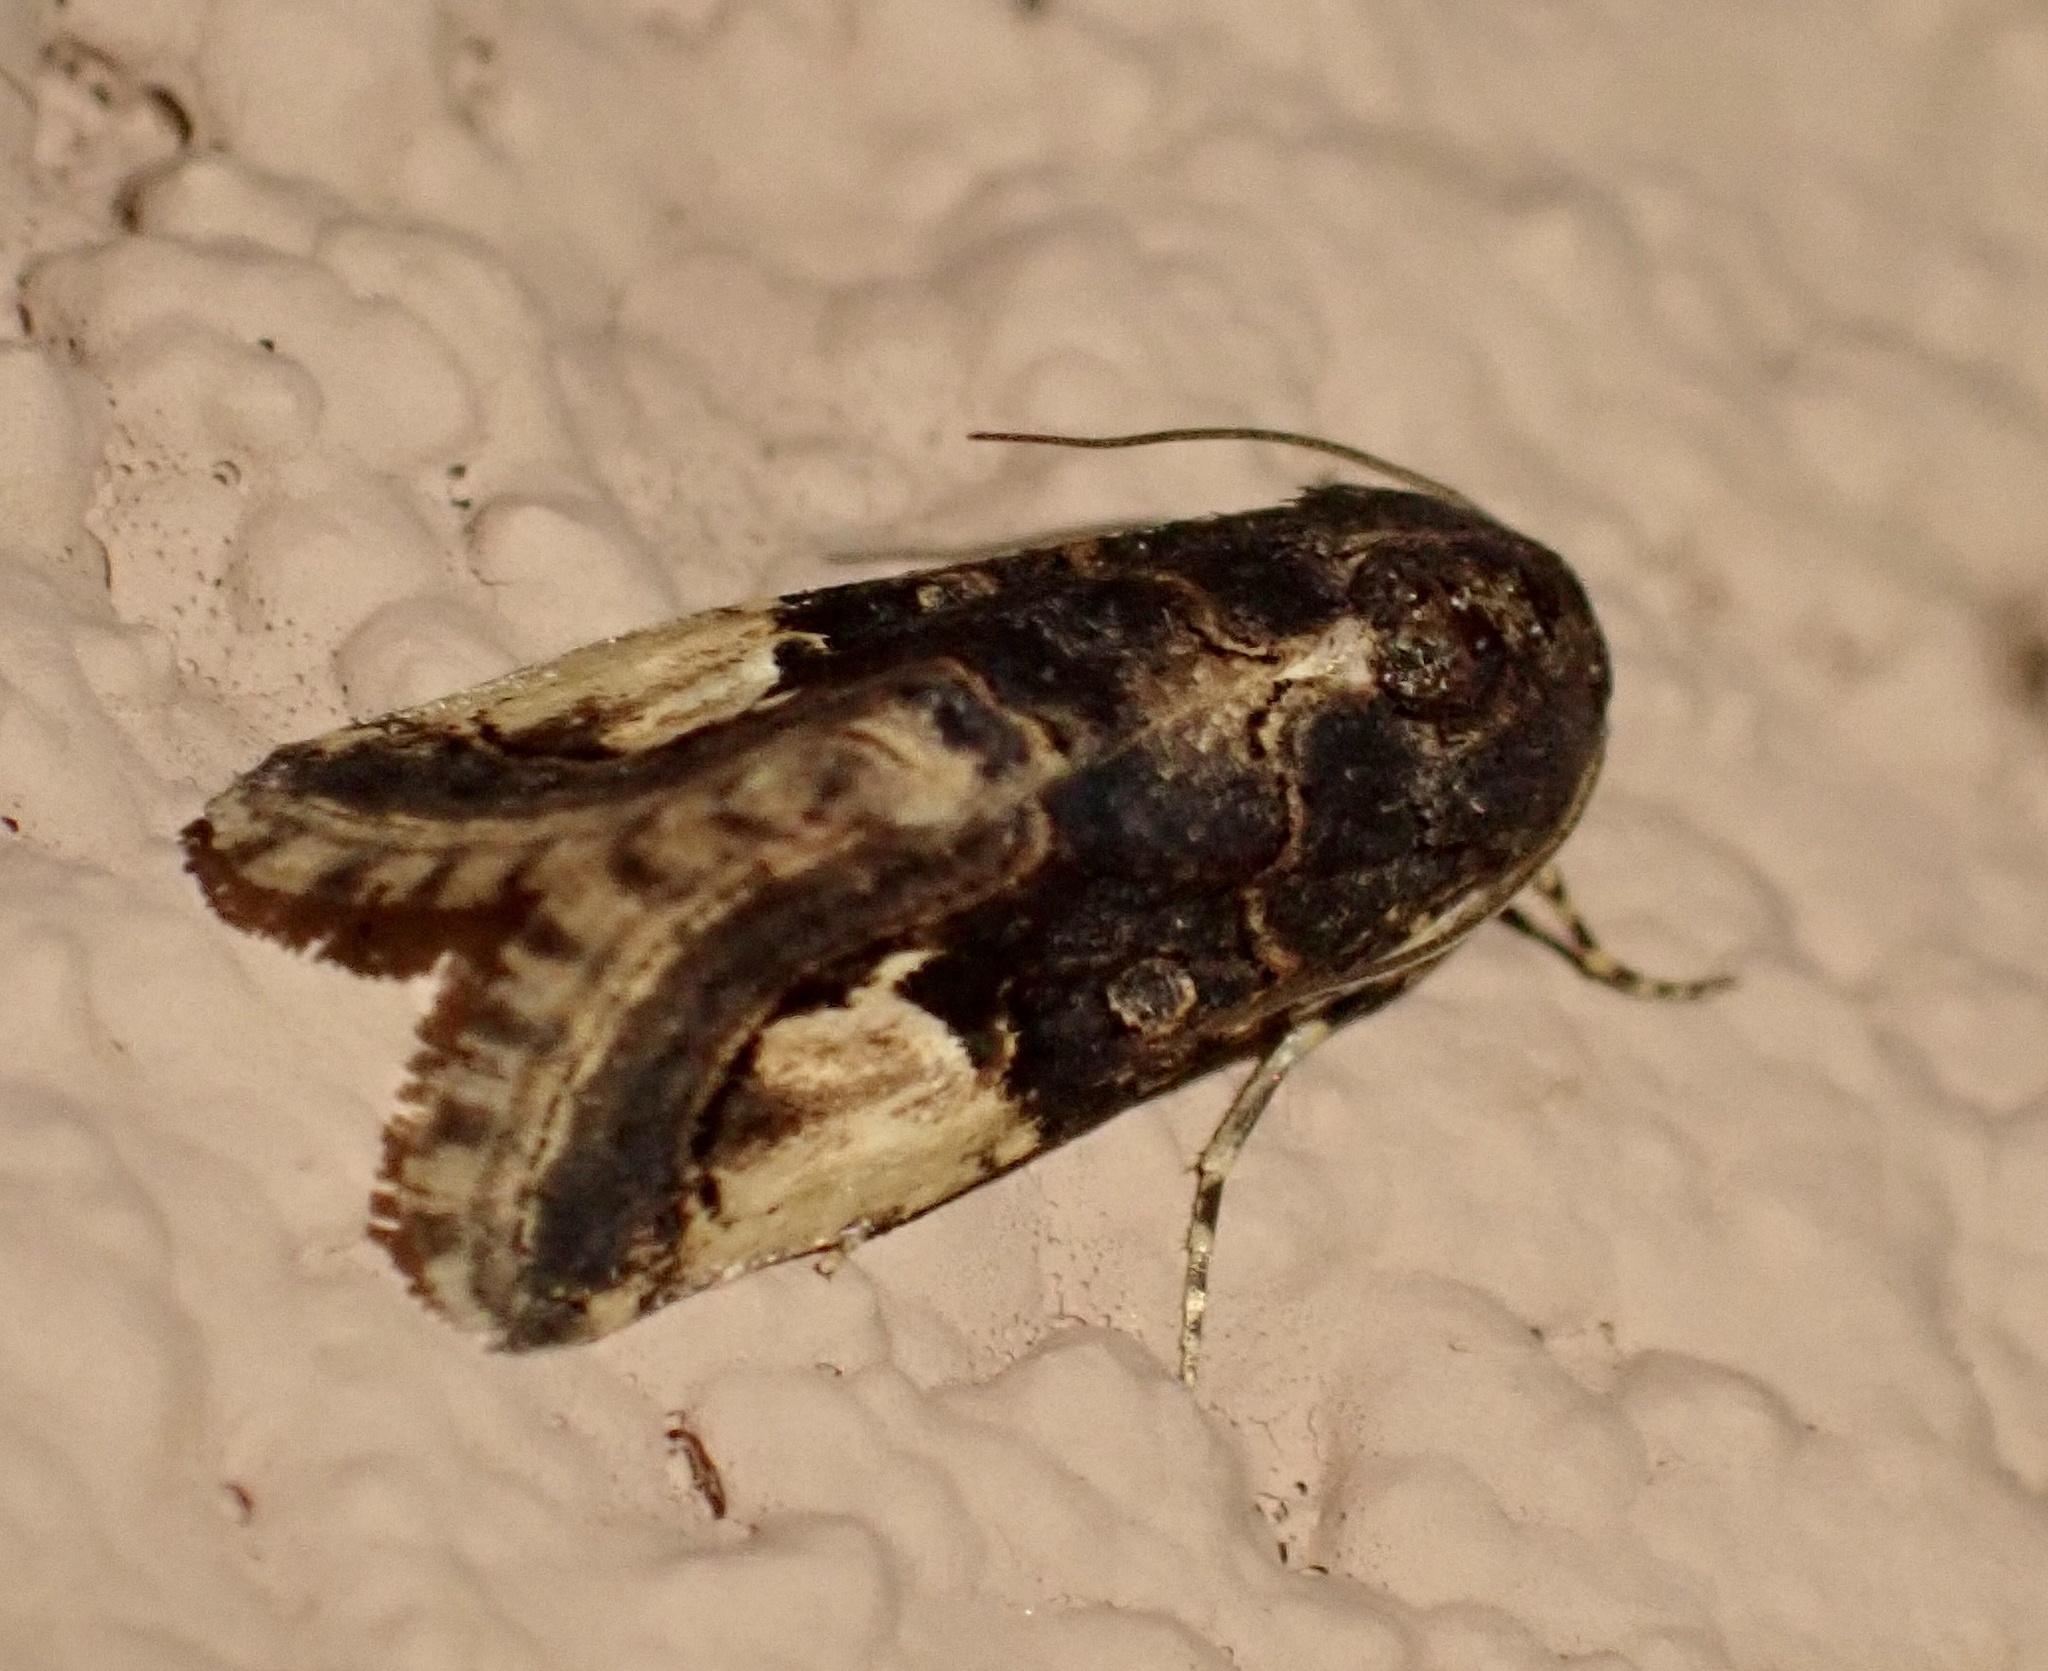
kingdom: Animalia
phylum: Arthropoda
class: Insecta
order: Lepidoptera
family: Erebidae
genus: Epharmottomena
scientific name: Epharmottomena eremophila
